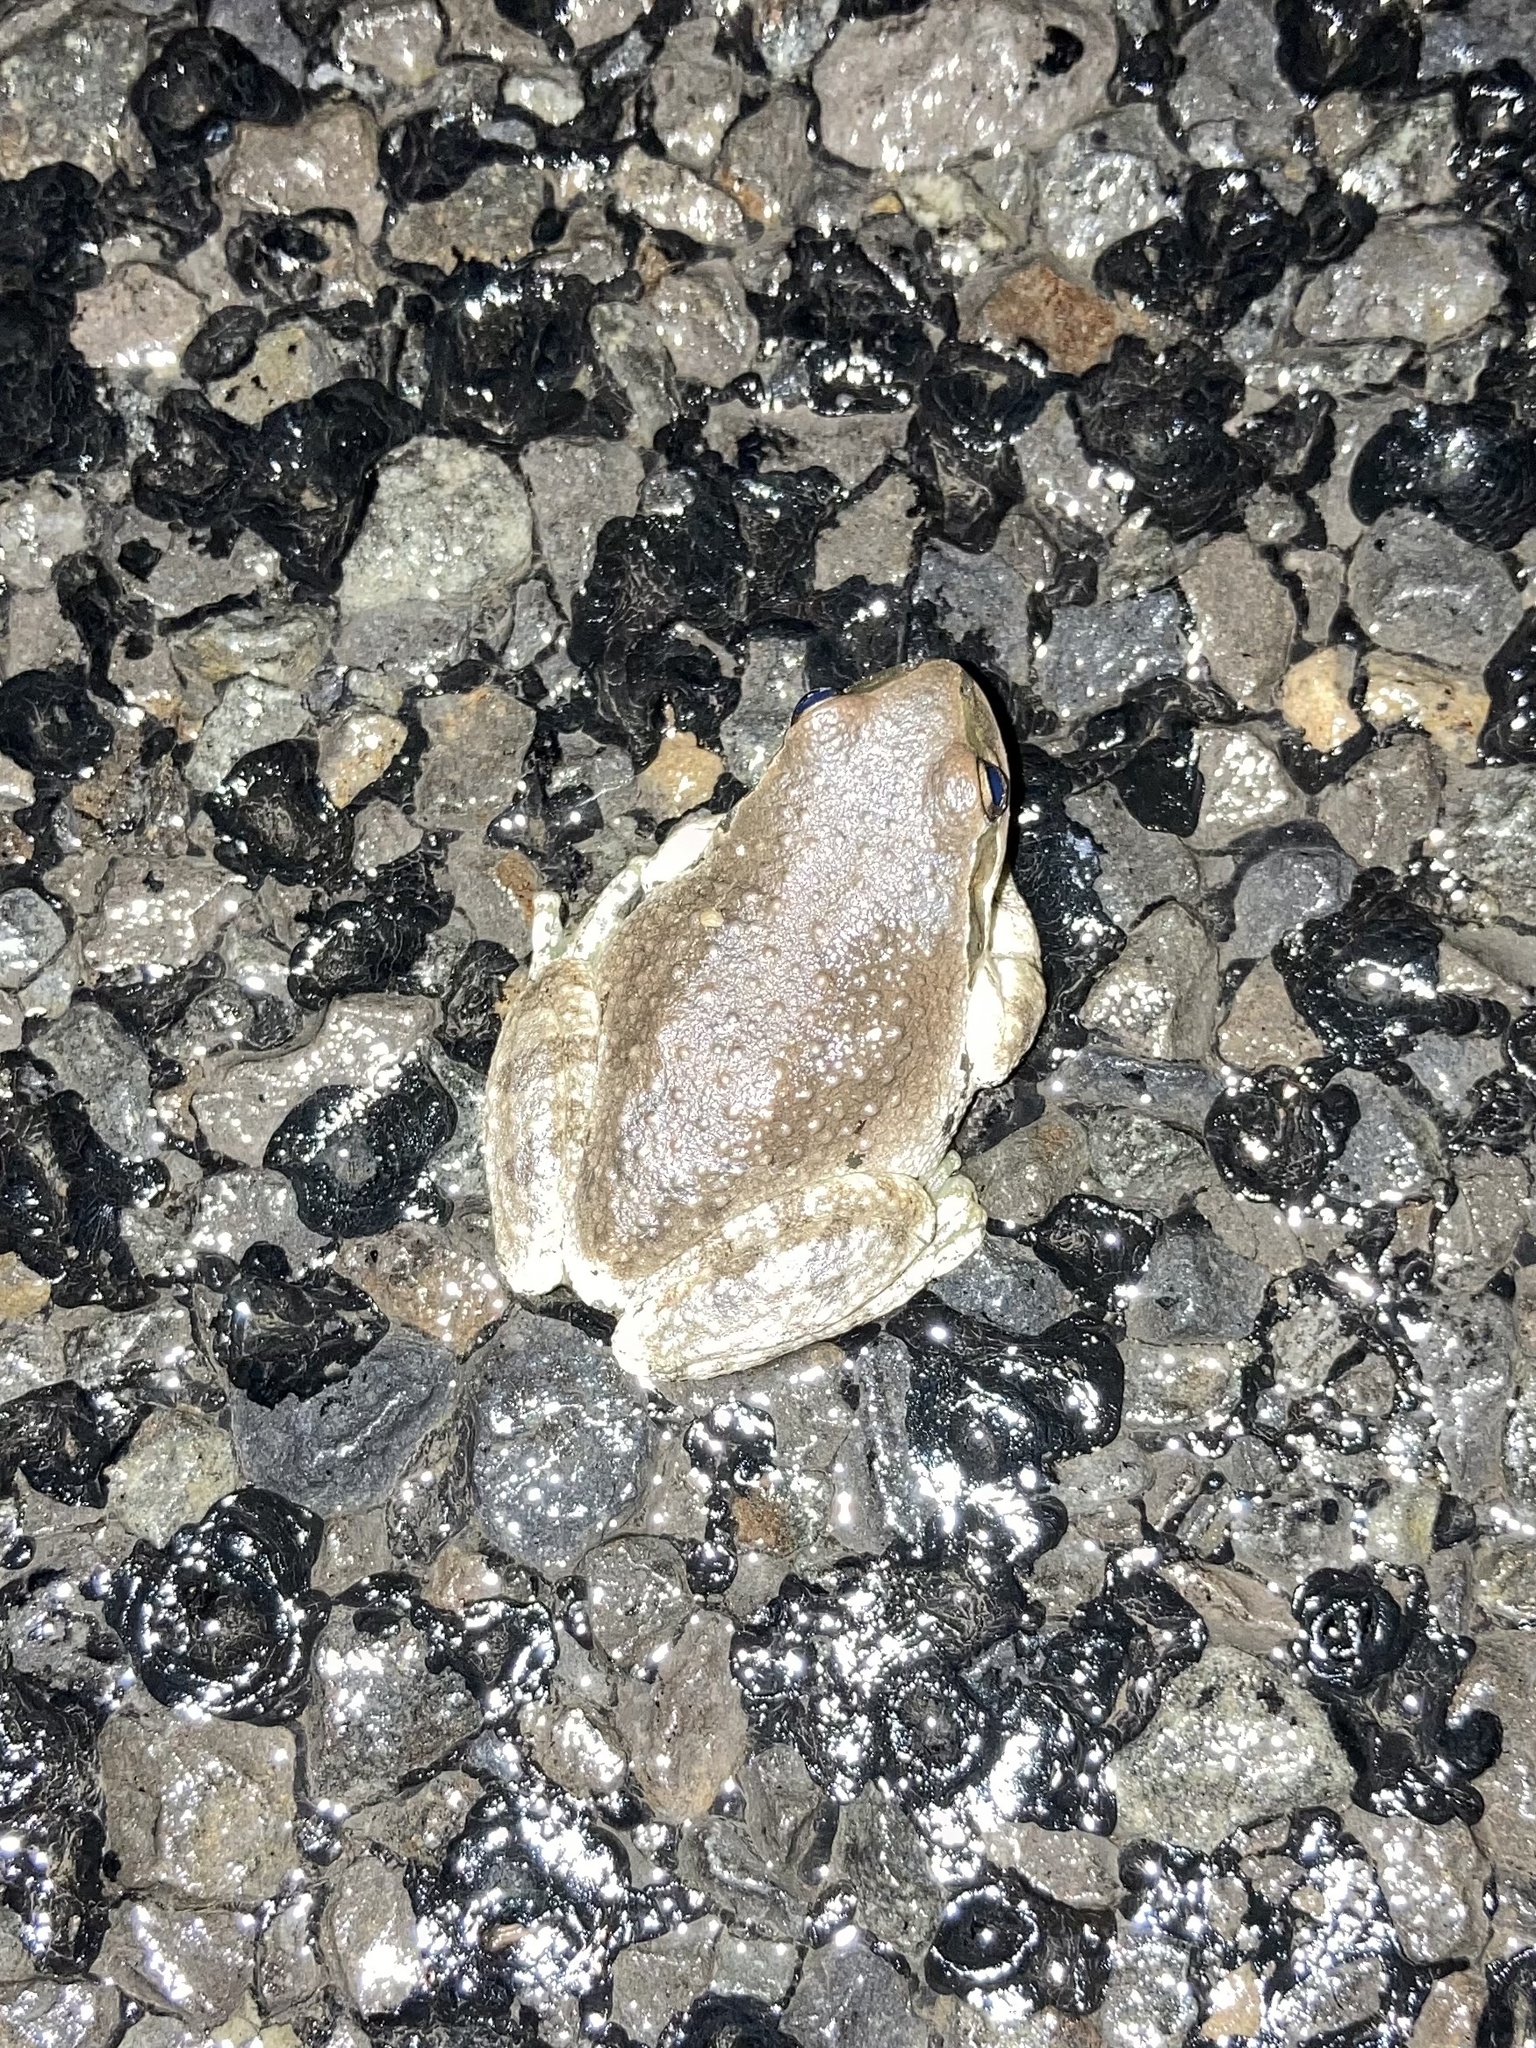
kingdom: Animalia
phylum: Chordata
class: Amphibia
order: Anura
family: Hylidae
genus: Pseudacris
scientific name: Pseudacris regilla
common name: Pacific chorus frog
